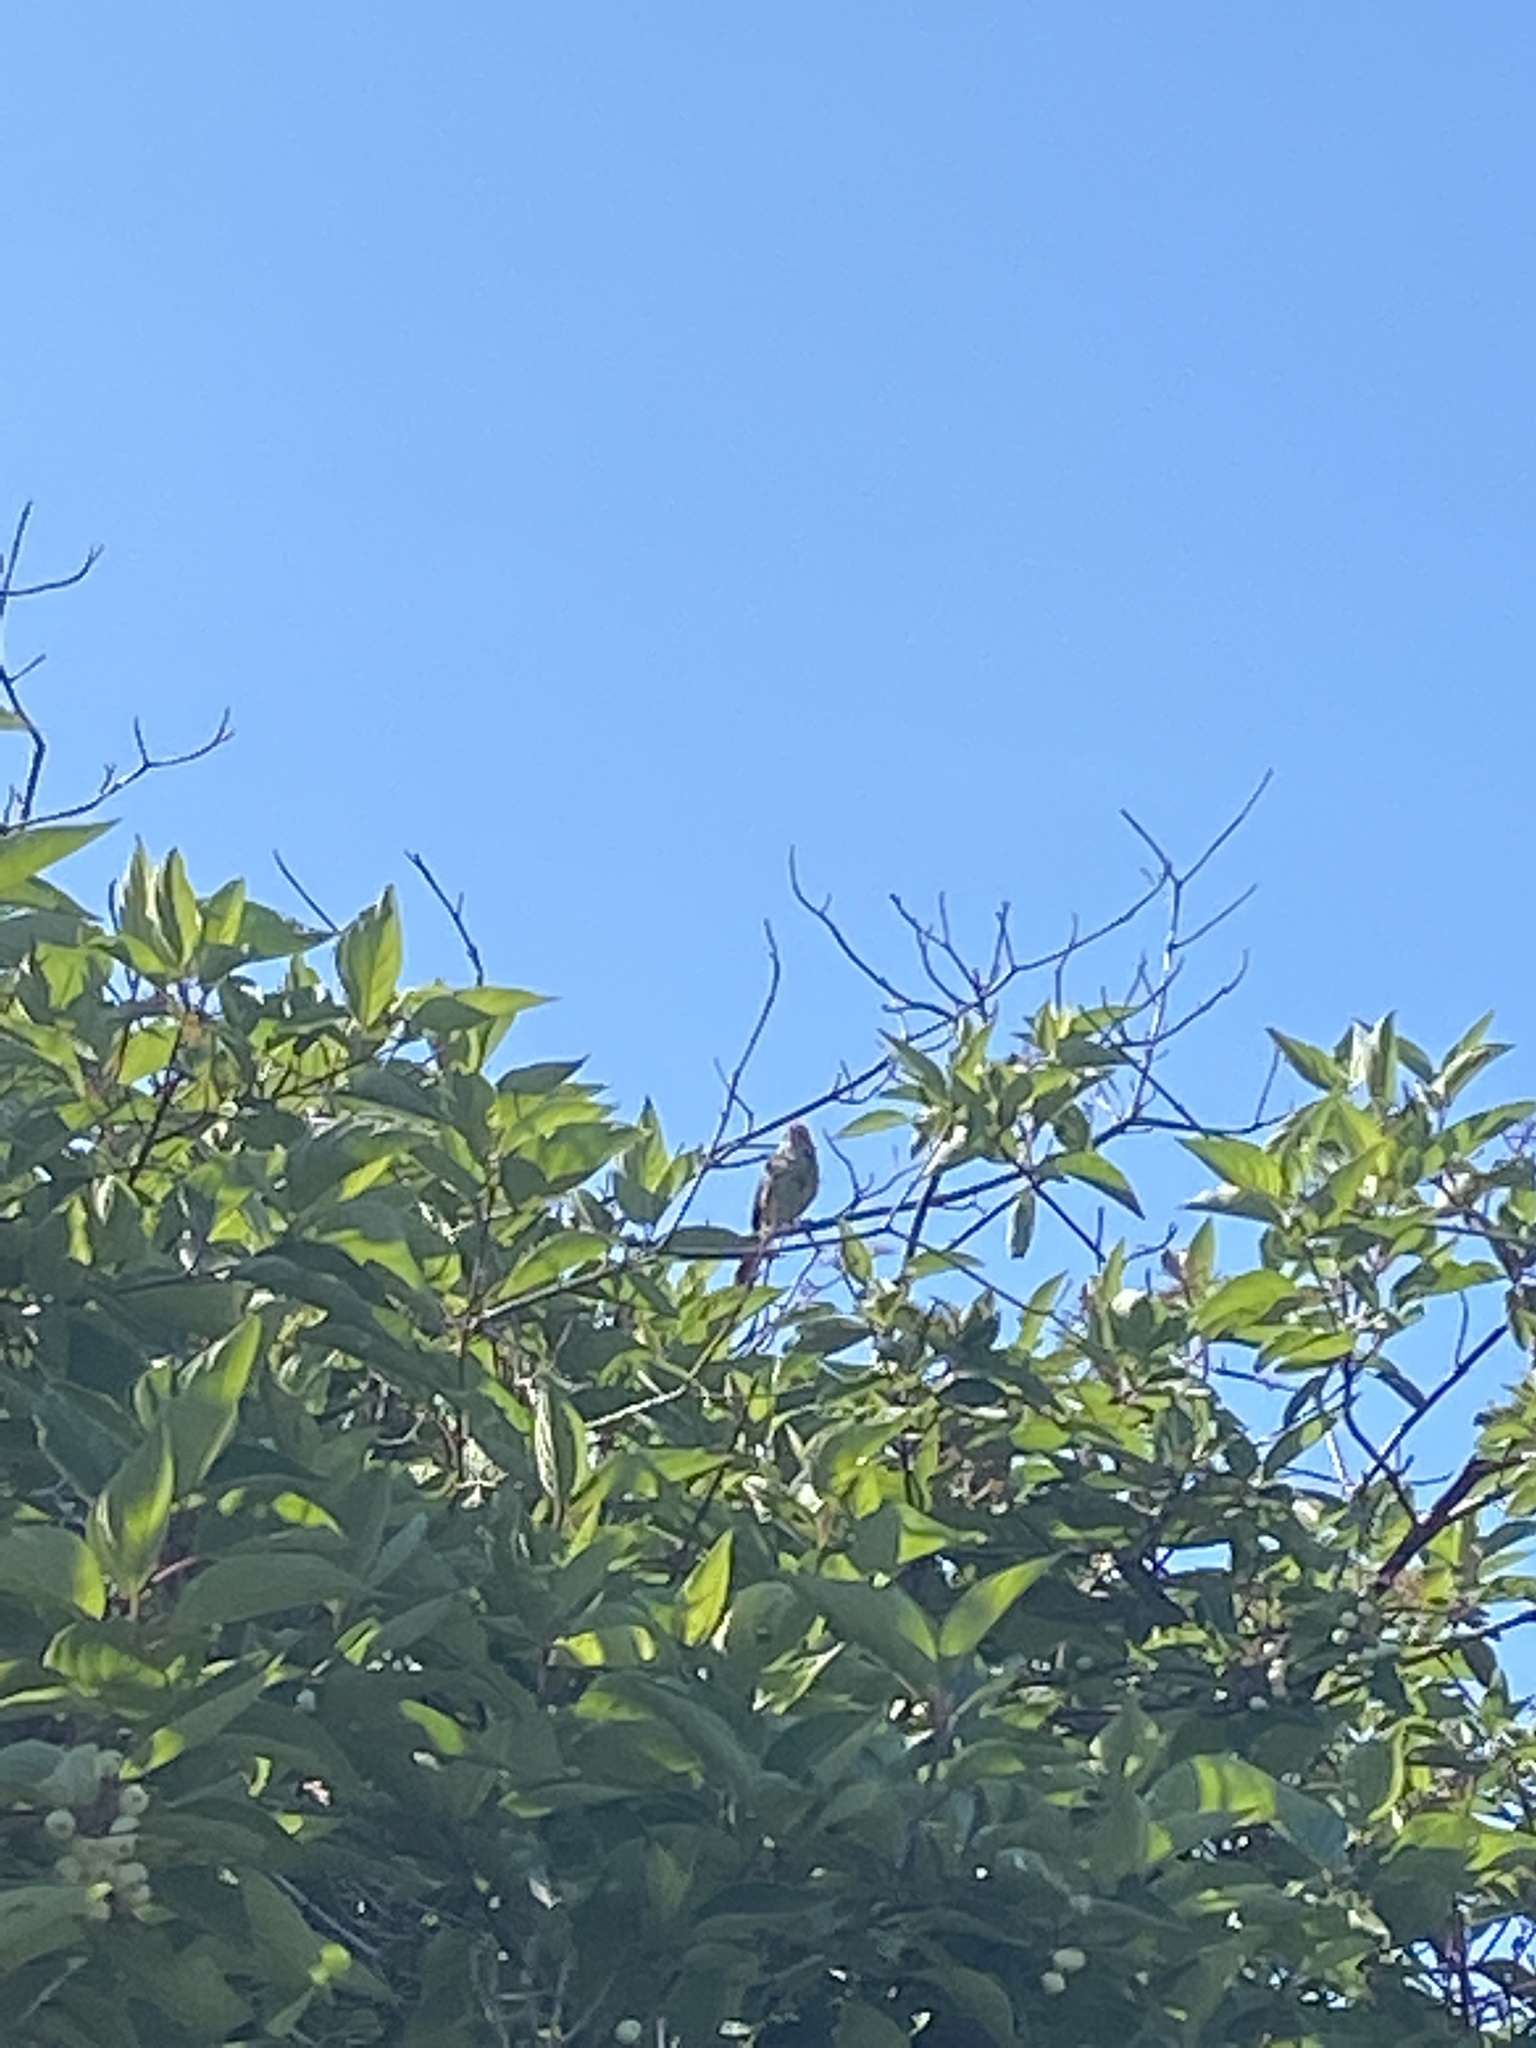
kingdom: Animalia
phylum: Chordata
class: Aves
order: Passeriformes
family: Passerellidae
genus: Melospiza
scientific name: Melospiza melodia
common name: Song sparrow
